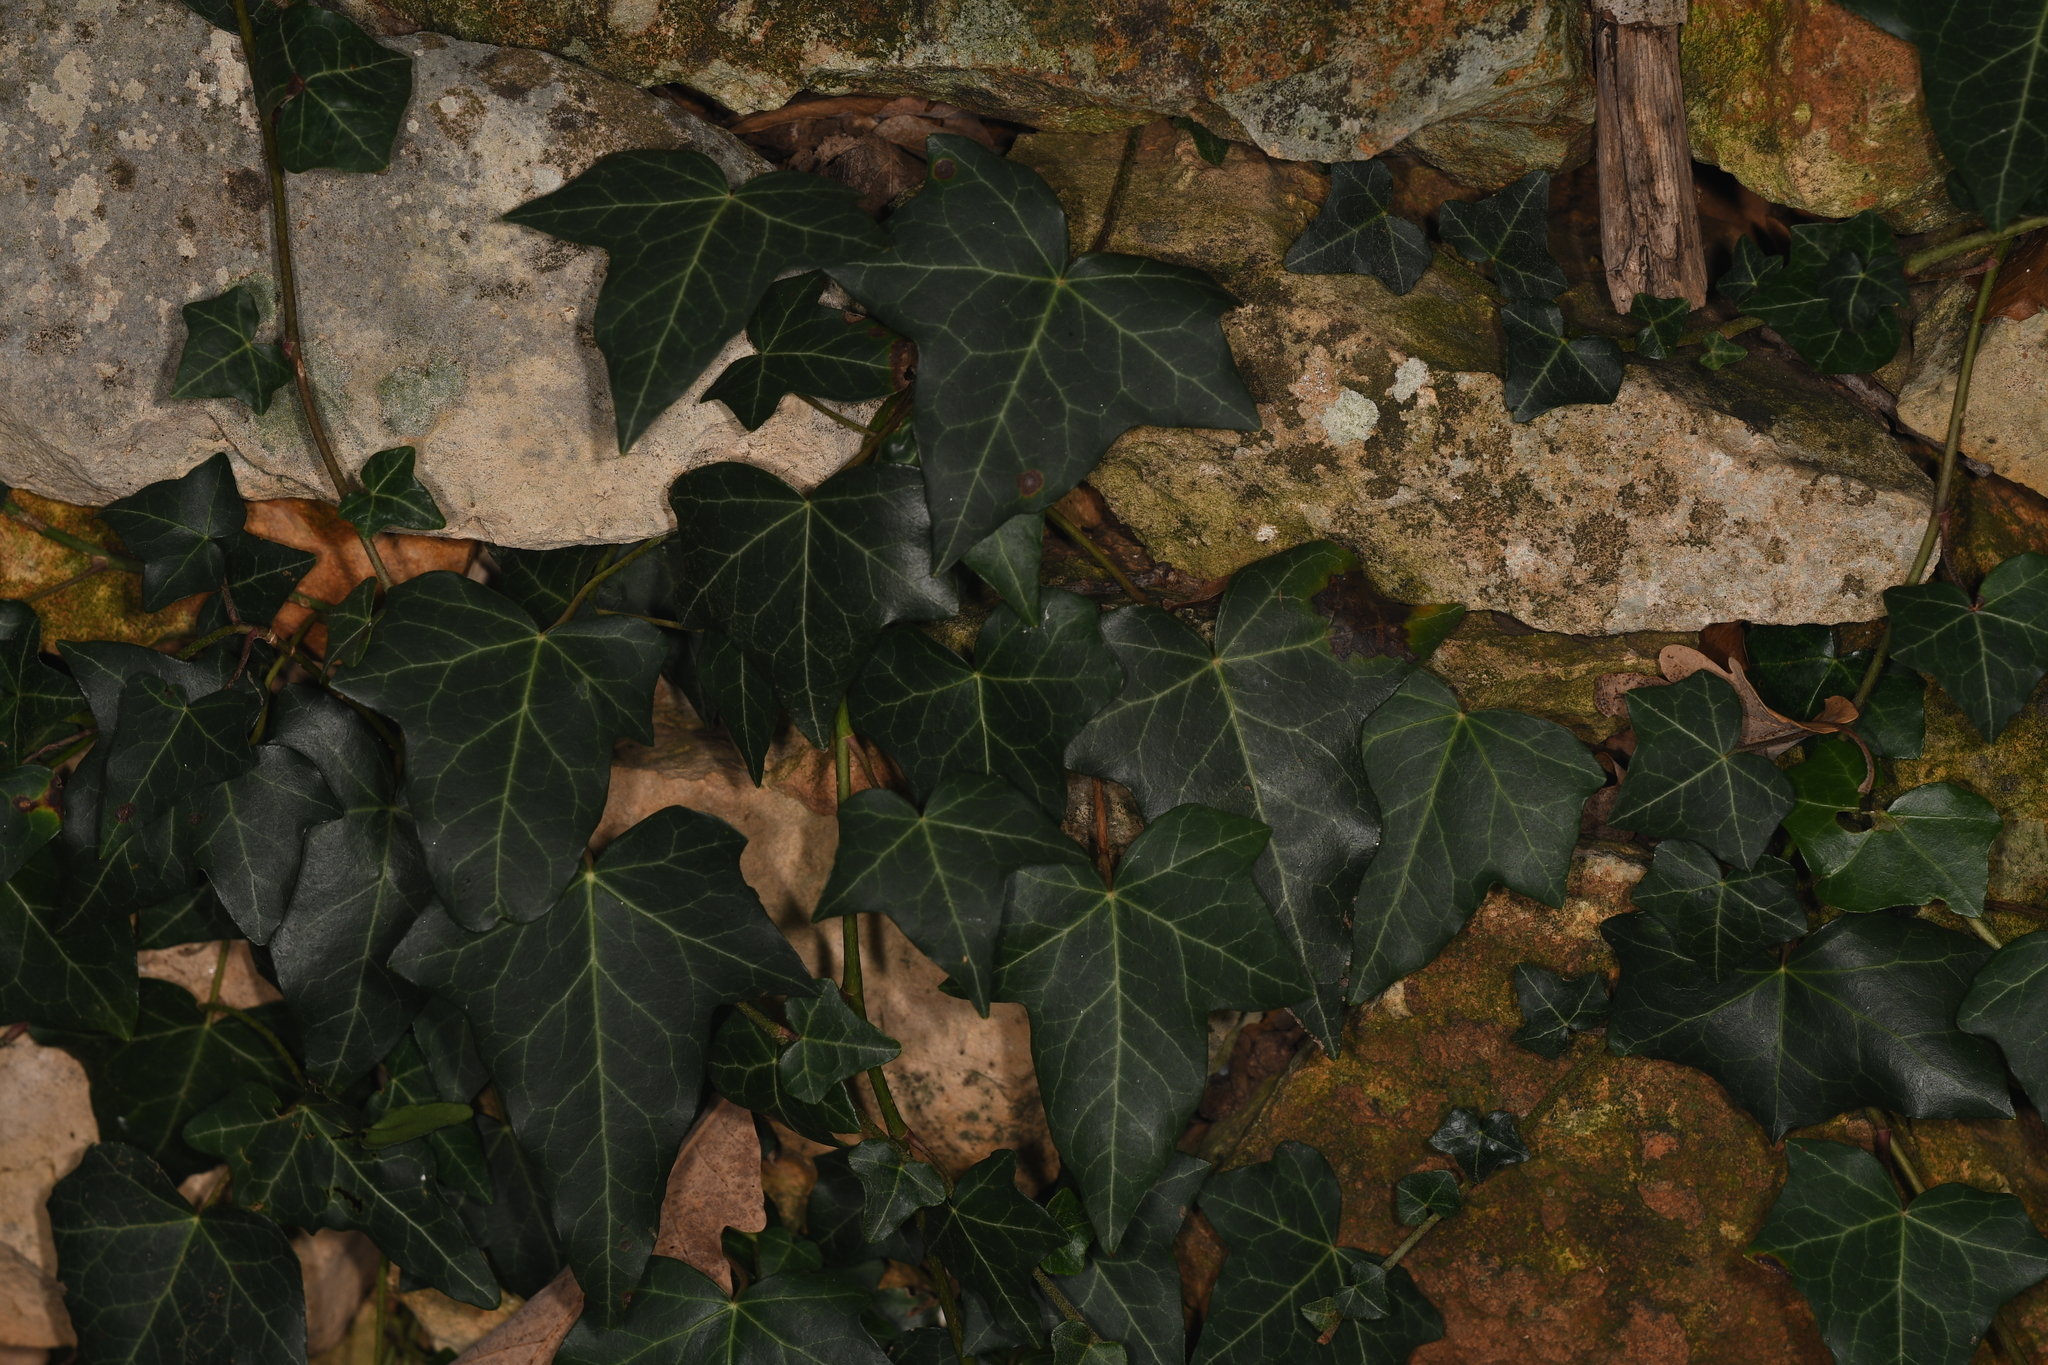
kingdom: Plantae
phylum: Tracheophyta
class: Magnoliopsida
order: Apiales
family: Araliaceae
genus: Hedera
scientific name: Hedera helix
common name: Ivy
